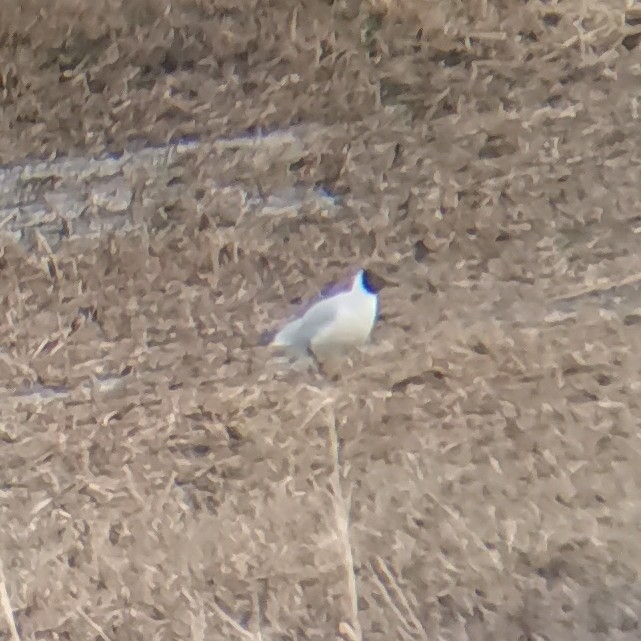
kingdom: Animalia
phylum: Chordata
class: Aves
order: Charadriiformes
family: Laridae
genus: Chroicocephalus
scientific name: Chroicocephalus ridibundus
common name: Black-headed gull
